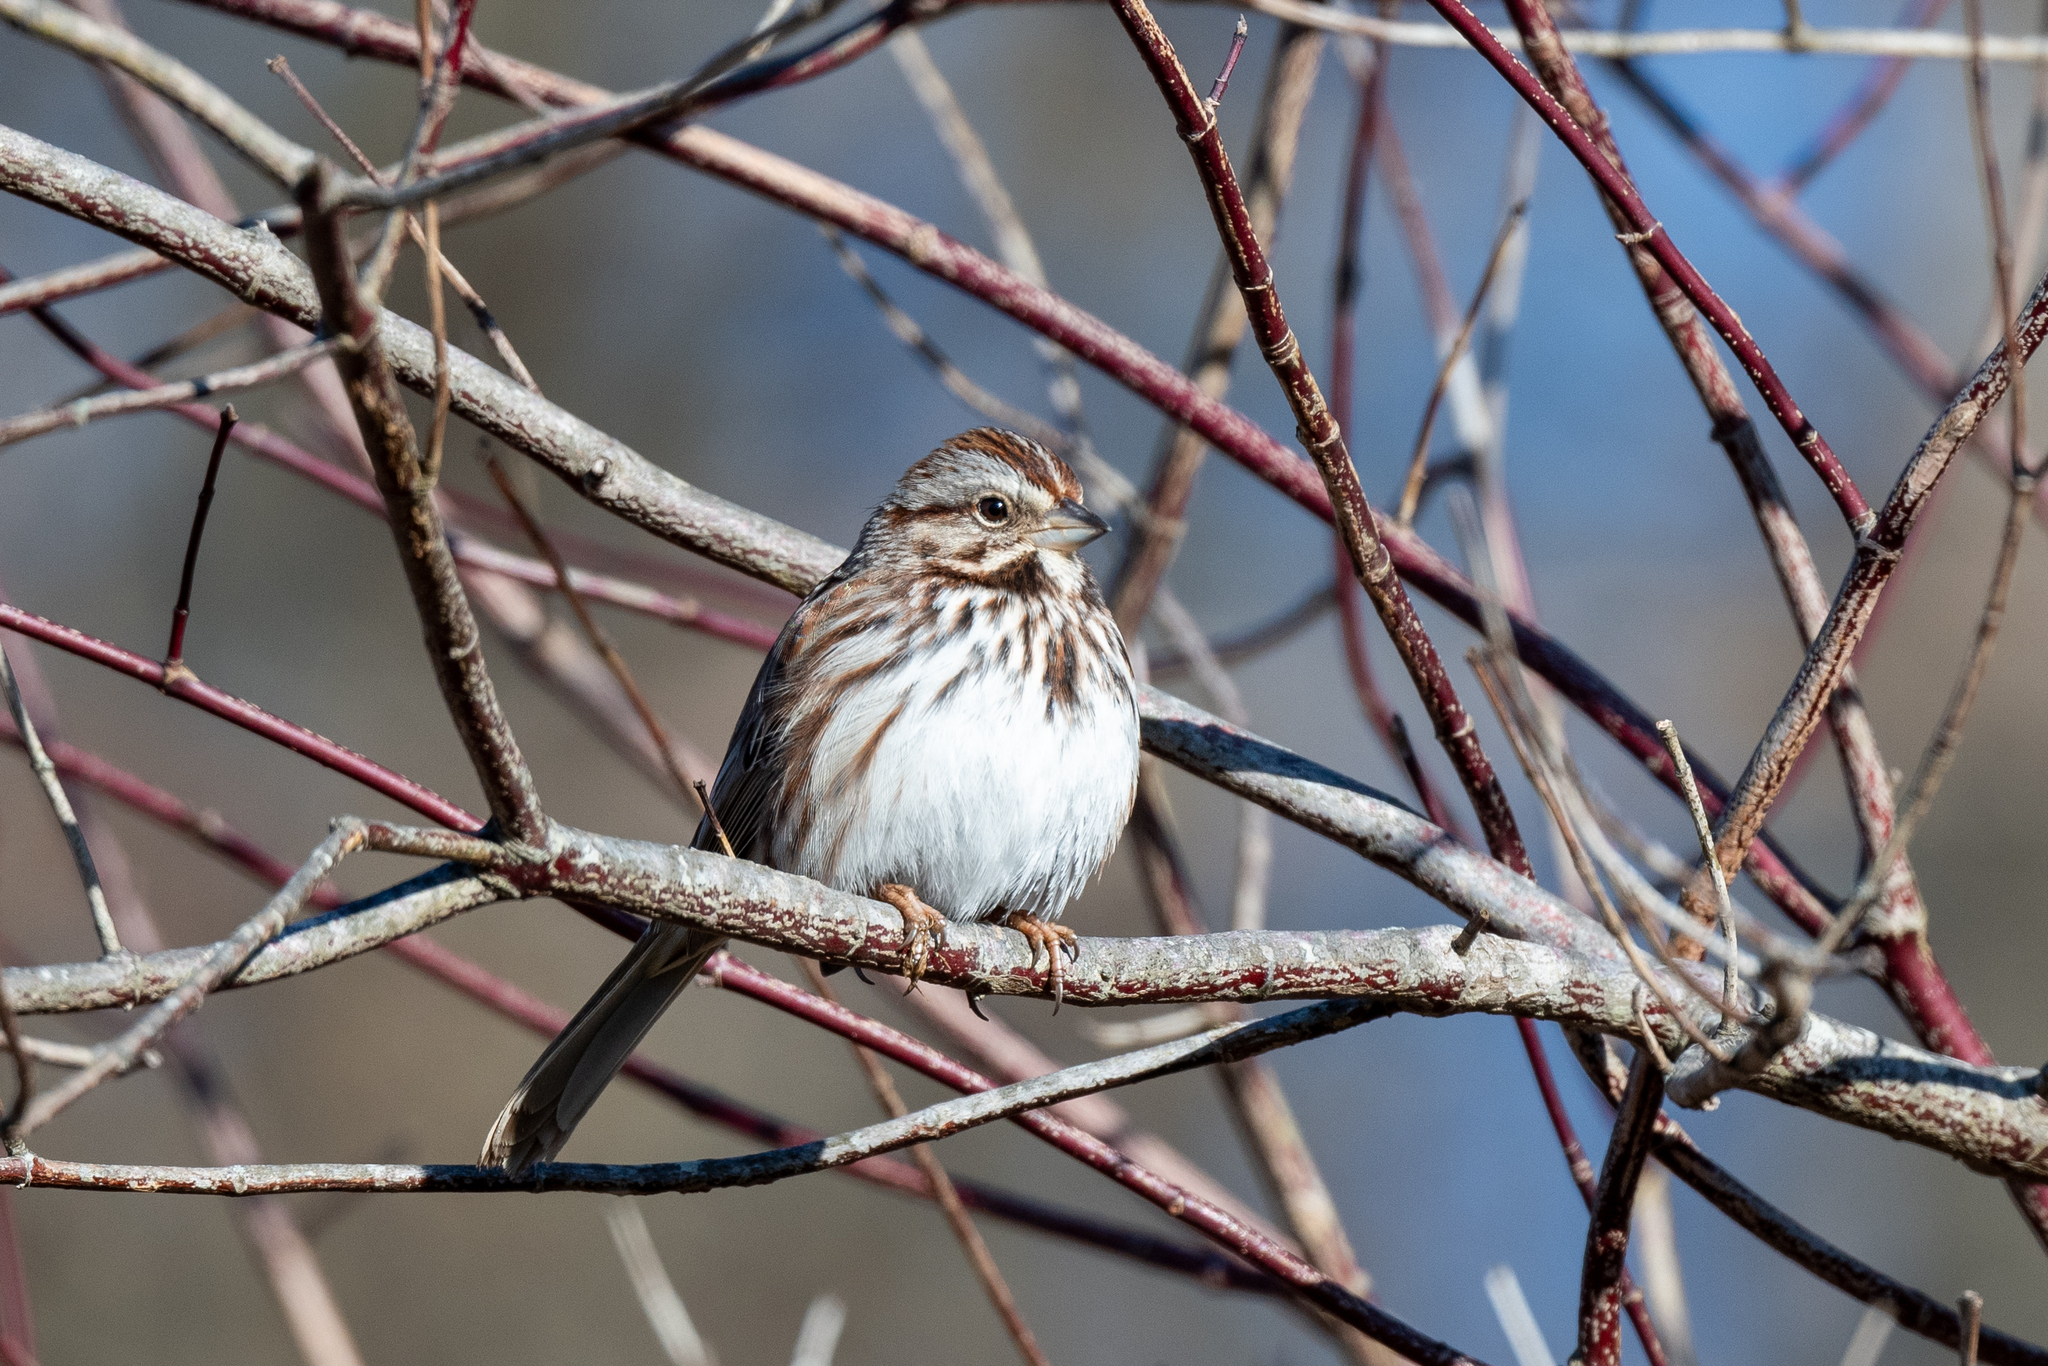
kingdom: Animalia
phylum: Chordata
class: Aves
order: Passeriformes
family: Passerellidae
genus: Melospiza
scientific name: Melospiza melodia
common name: Song sparrow
